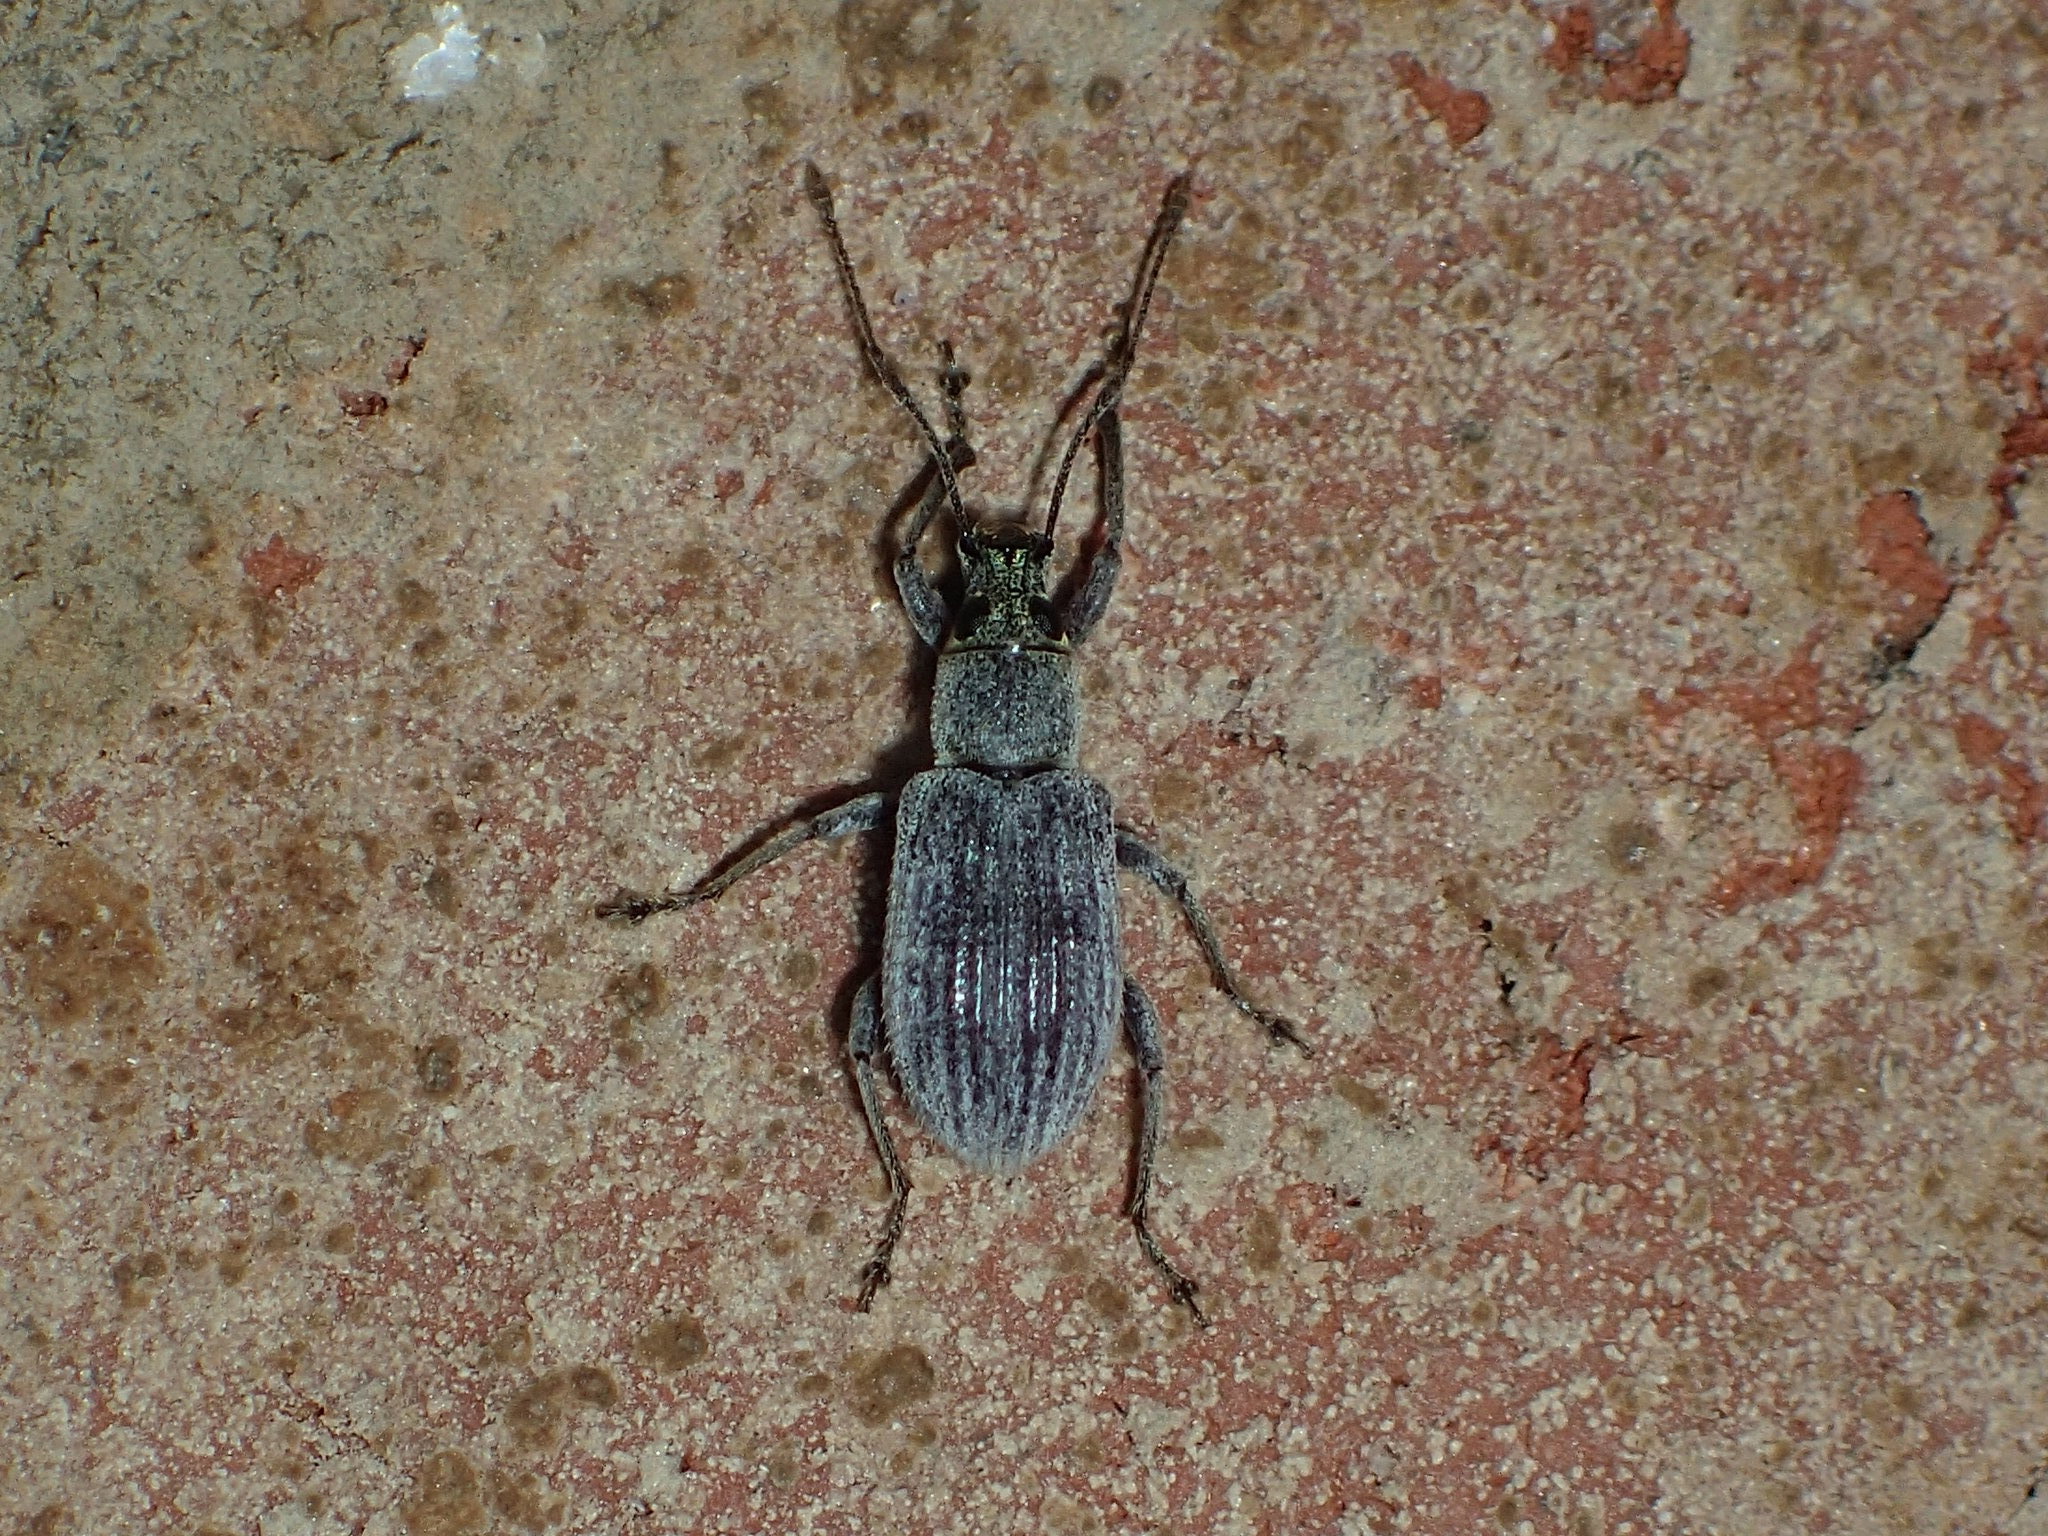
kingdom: Animalia
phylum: Arthropoda
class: Insecta
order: Coleoptera
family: Curculionidae
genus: Cyrtepistomus
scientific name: Cyrtepistomus castaneus
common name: Weevil
